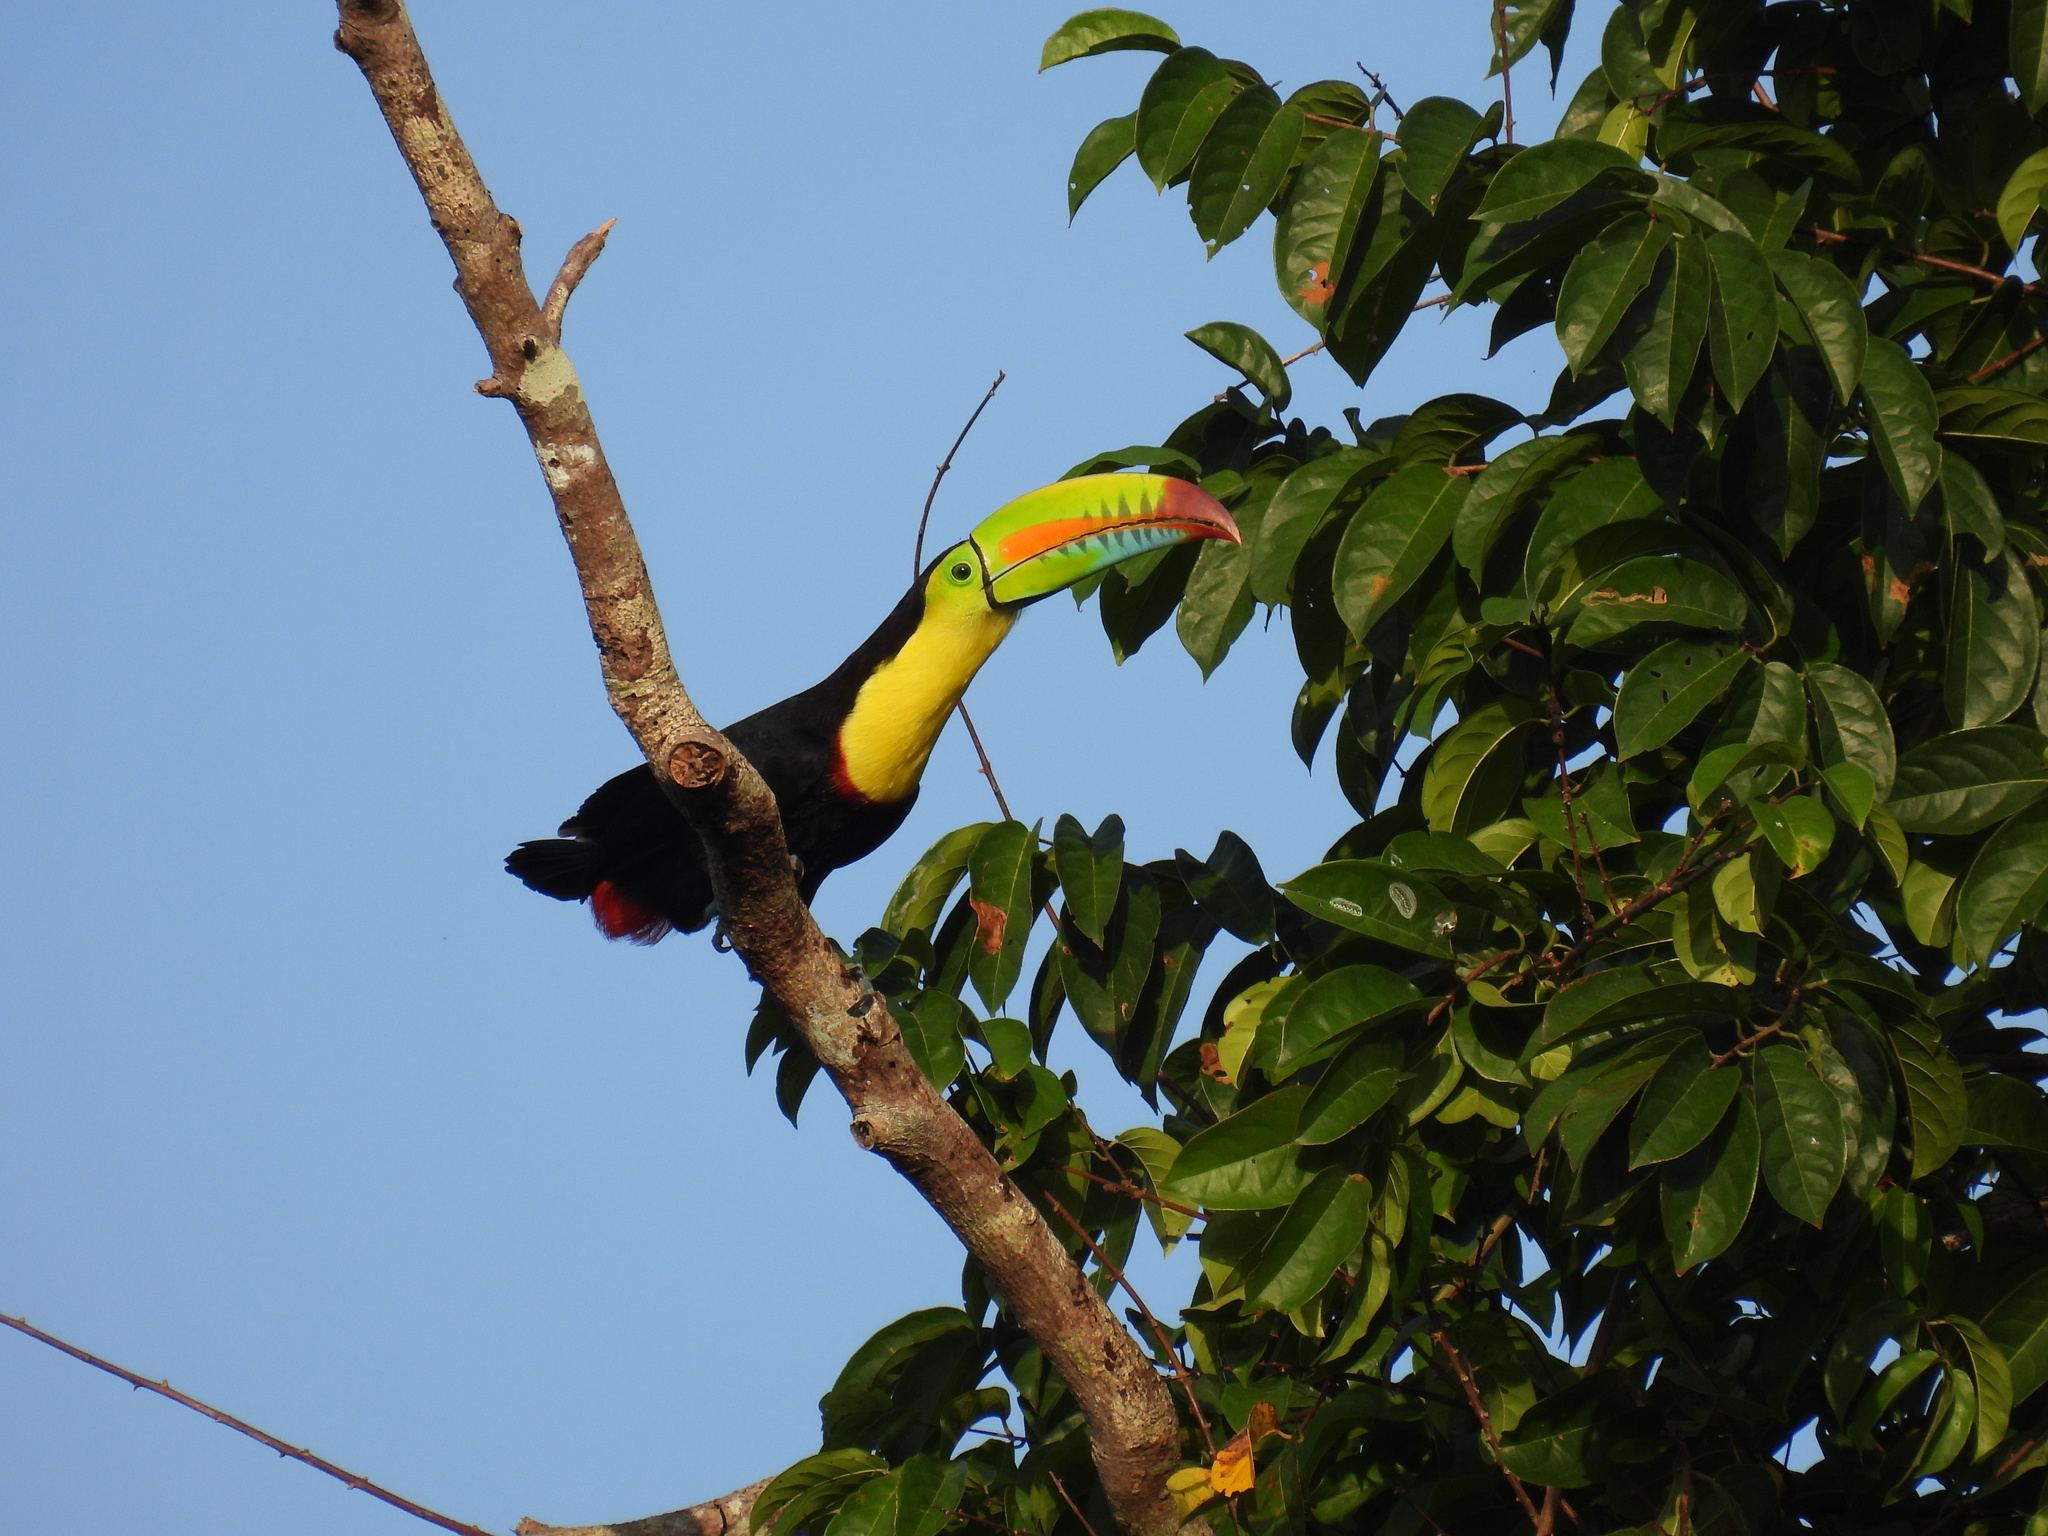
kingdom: Animalia
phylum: Chordata
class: Aves
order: Piciformes
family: Ramphastidae
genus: Ramphastos
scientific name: Ramphastos sulfuratus
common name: Keel-billed toucan
